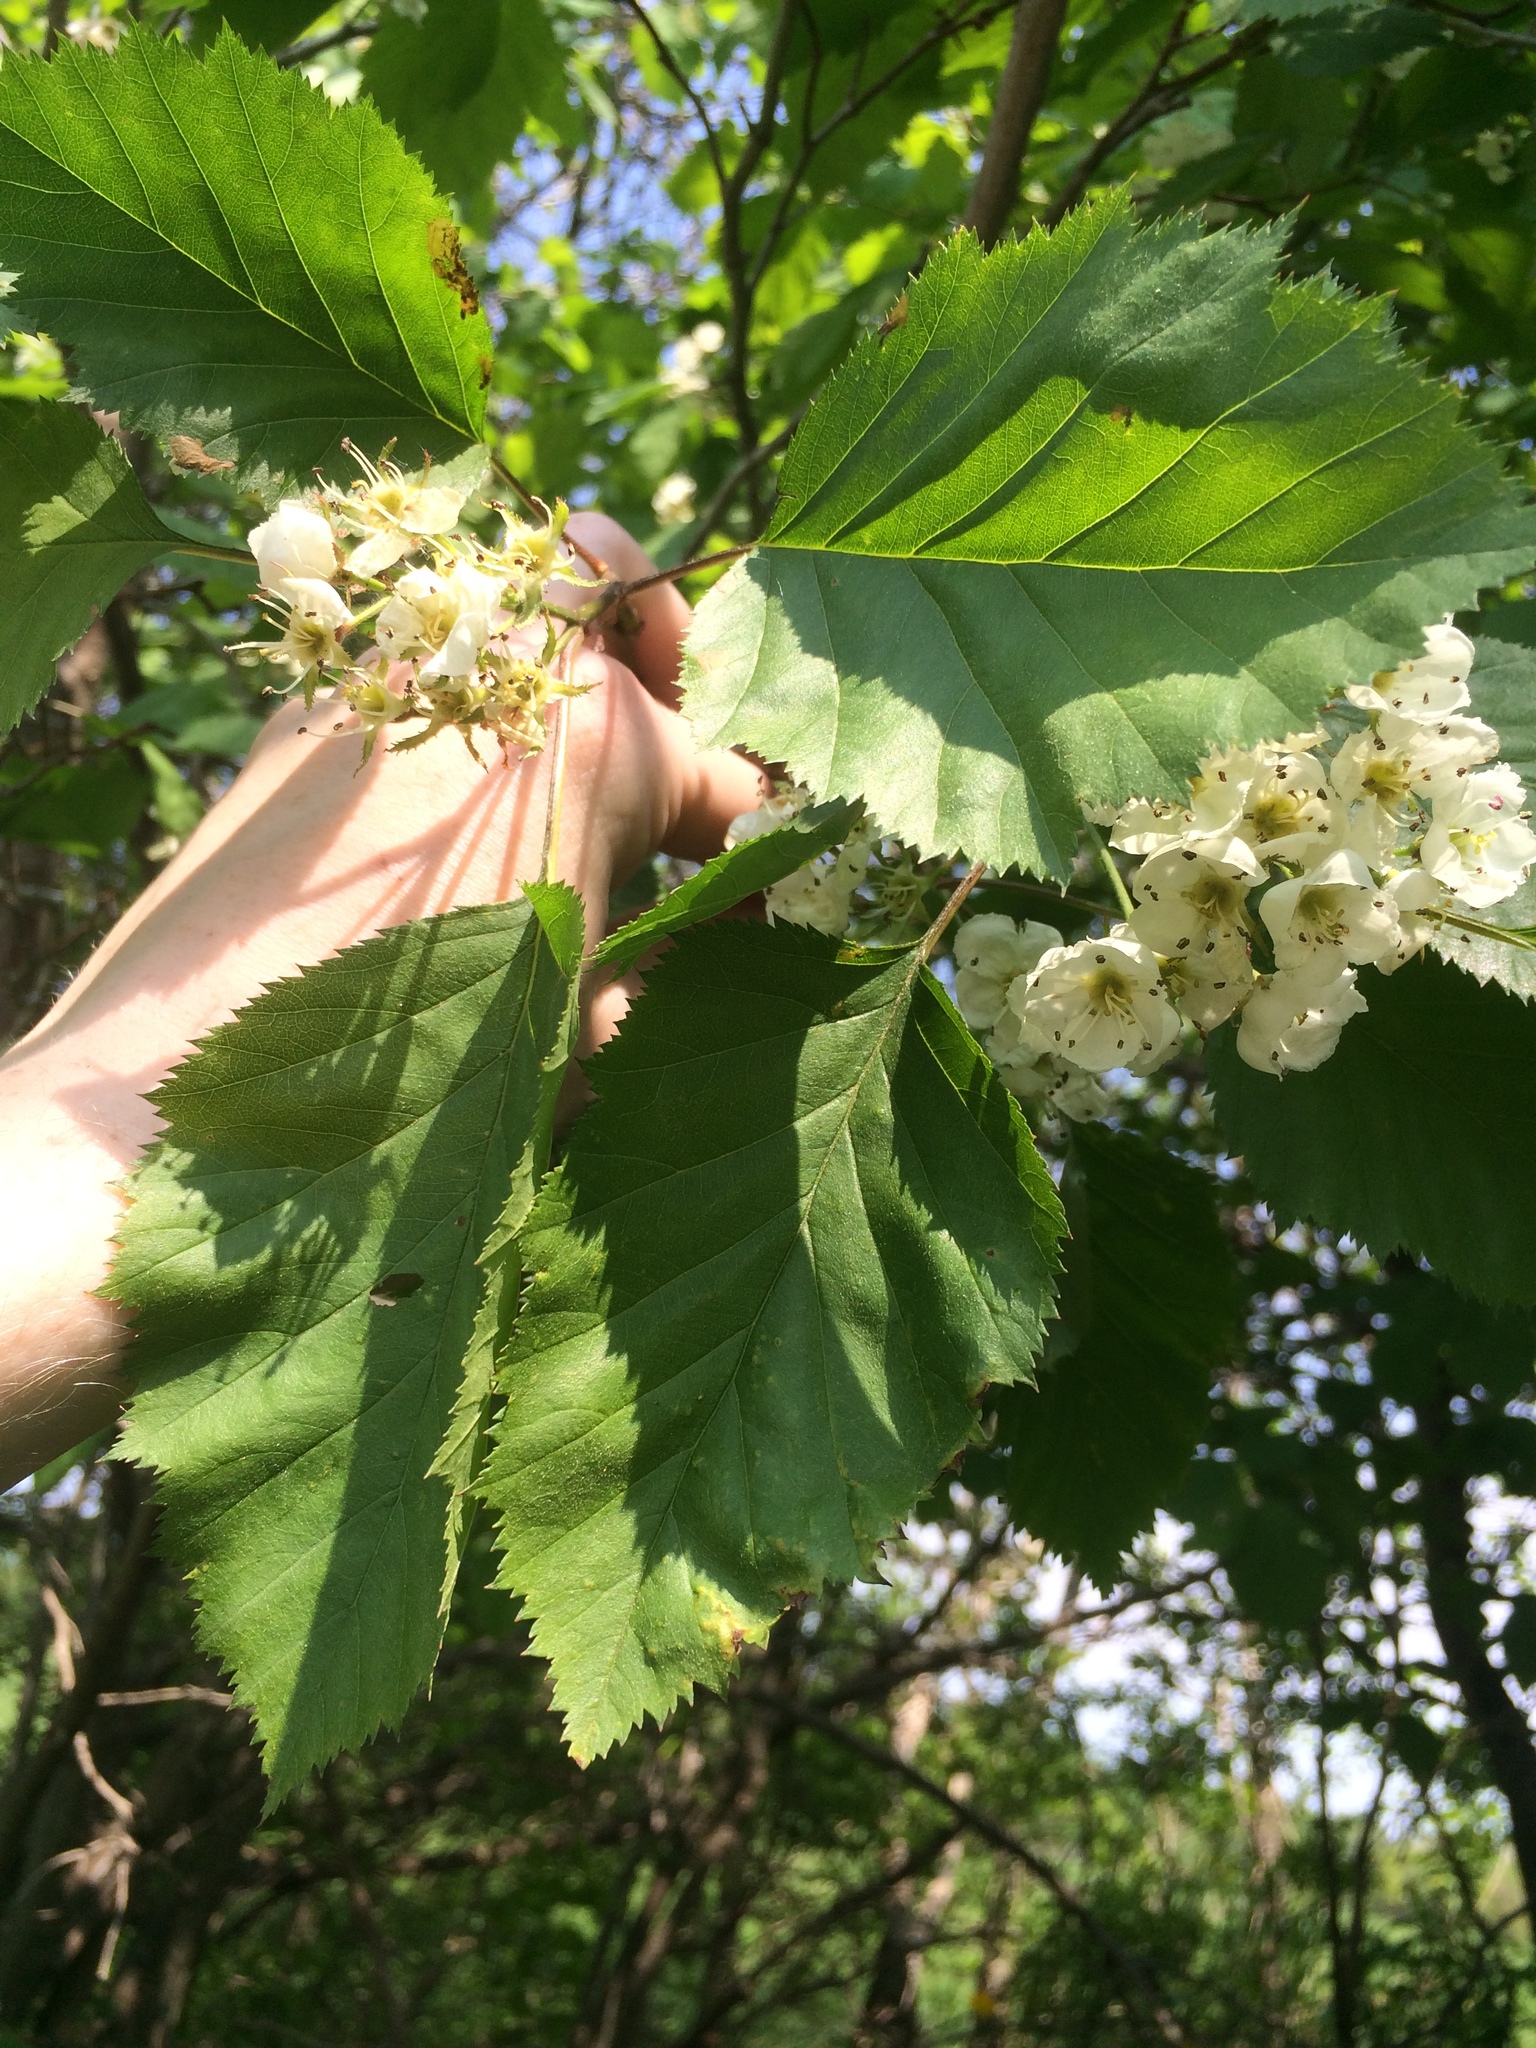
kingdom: Plantae
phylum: Tracheophyta
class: Magnoliopsida
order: Rosales
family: Rosaceae
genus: Crataegus
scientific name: Crataegus holmesiana
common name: Holmes' hawthorn
